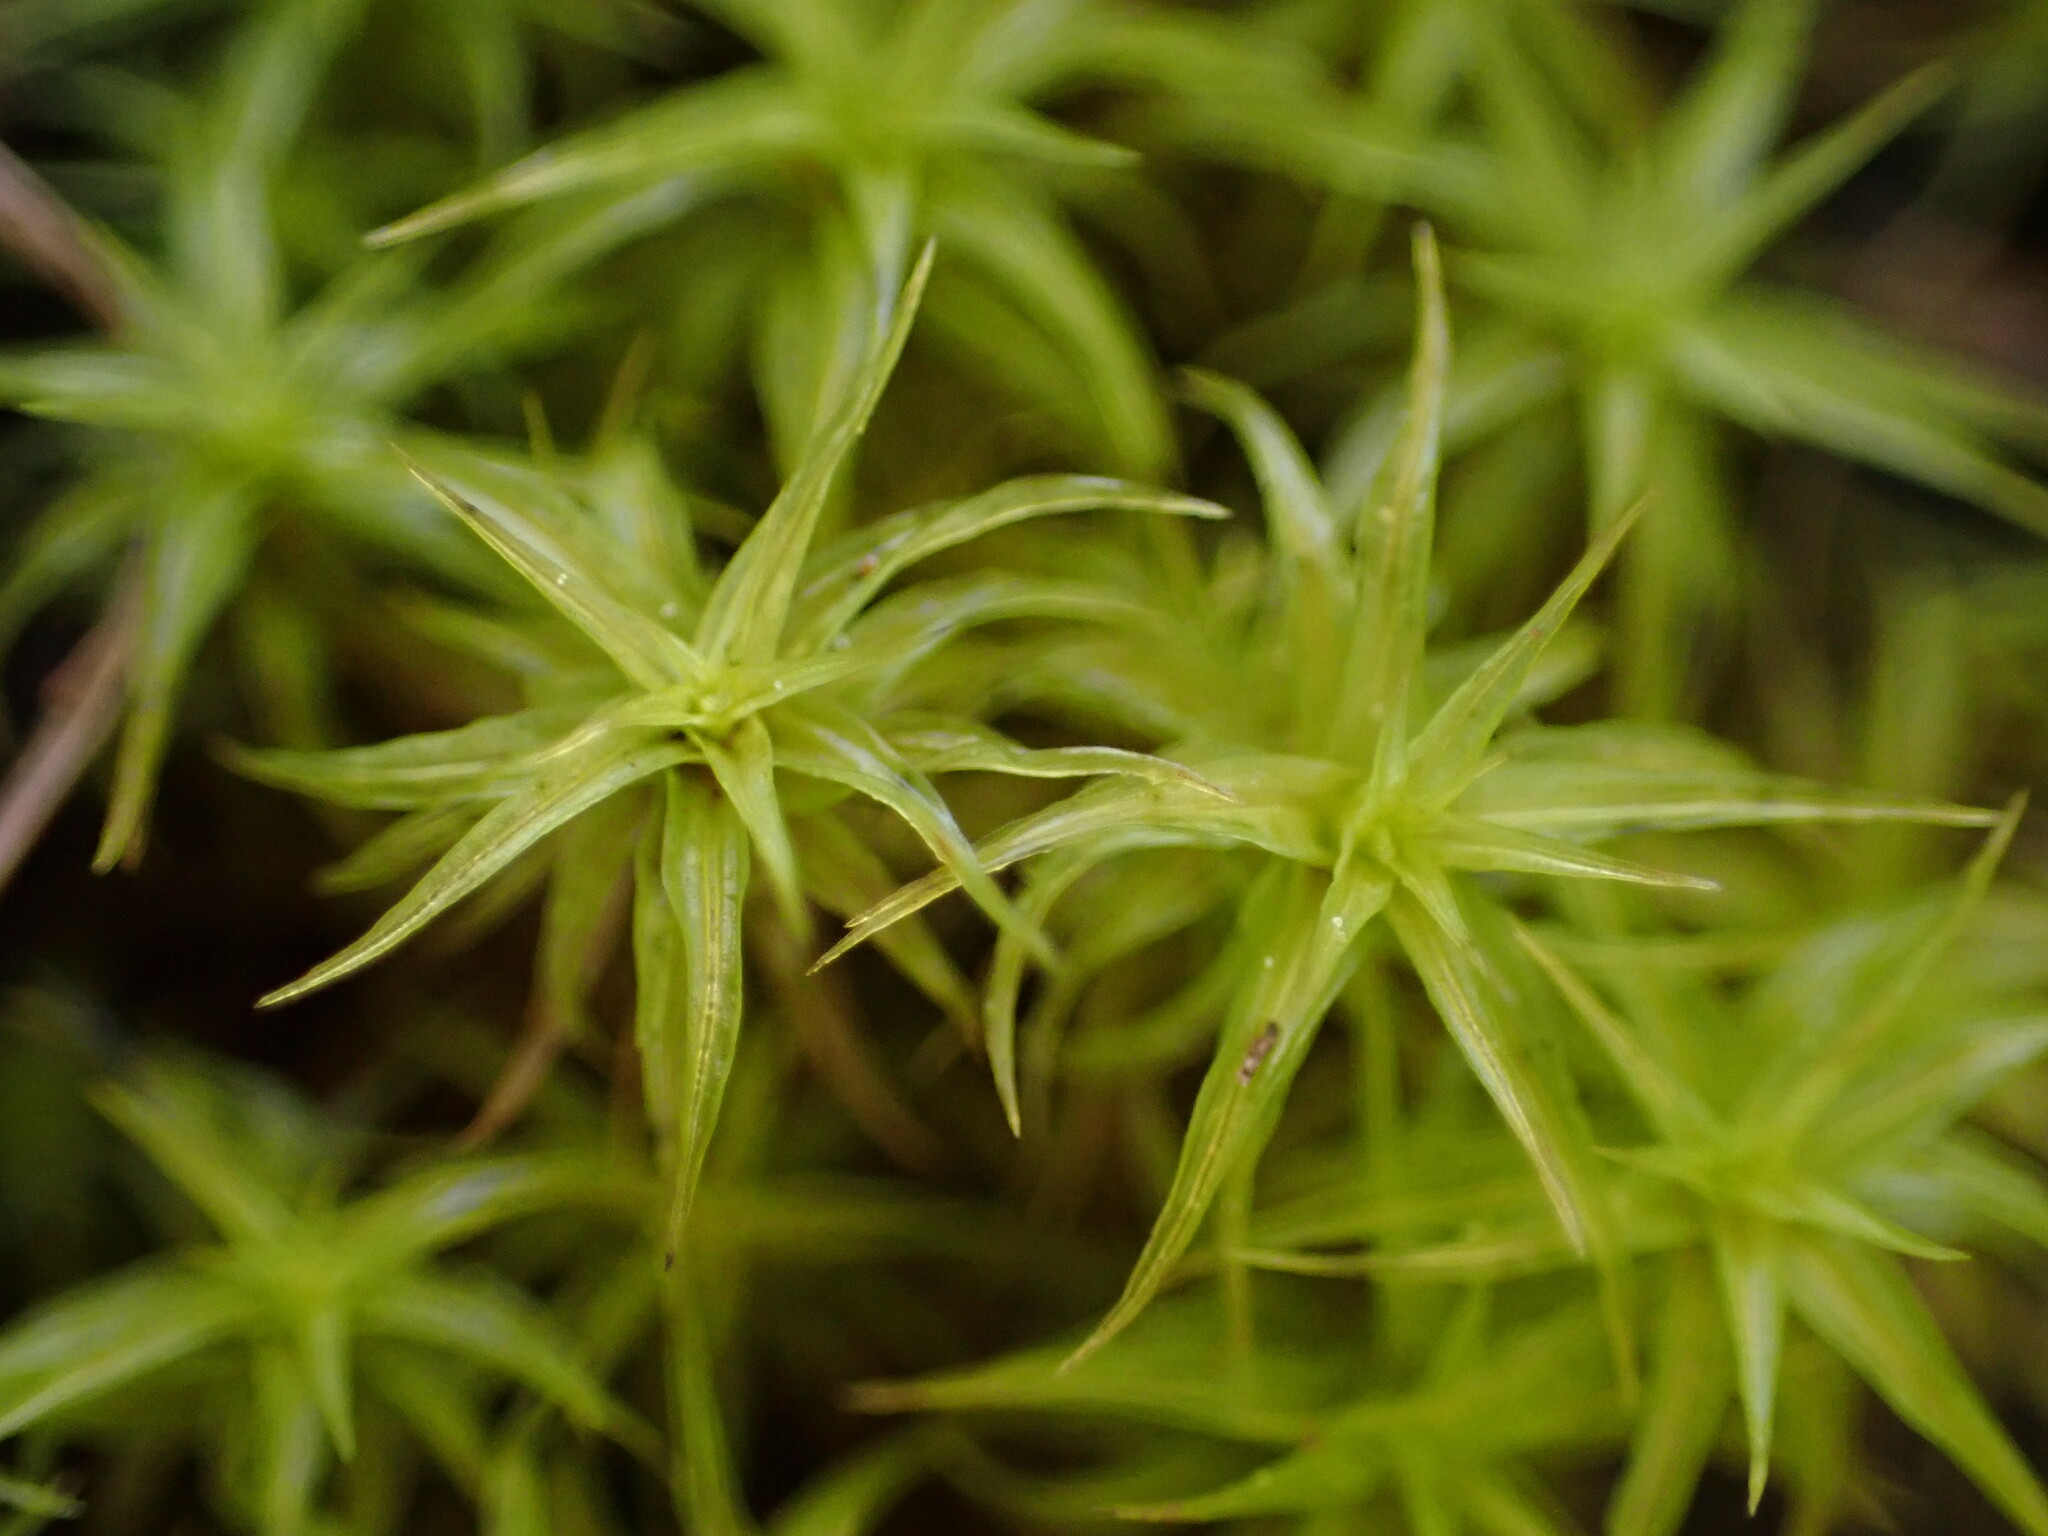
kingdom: Plantae
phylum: Bryophyta
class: Bryopsida
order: Pottiales
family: Pottiaceae
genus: Pleurochaete
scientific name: Pleurochaete squarrosa
